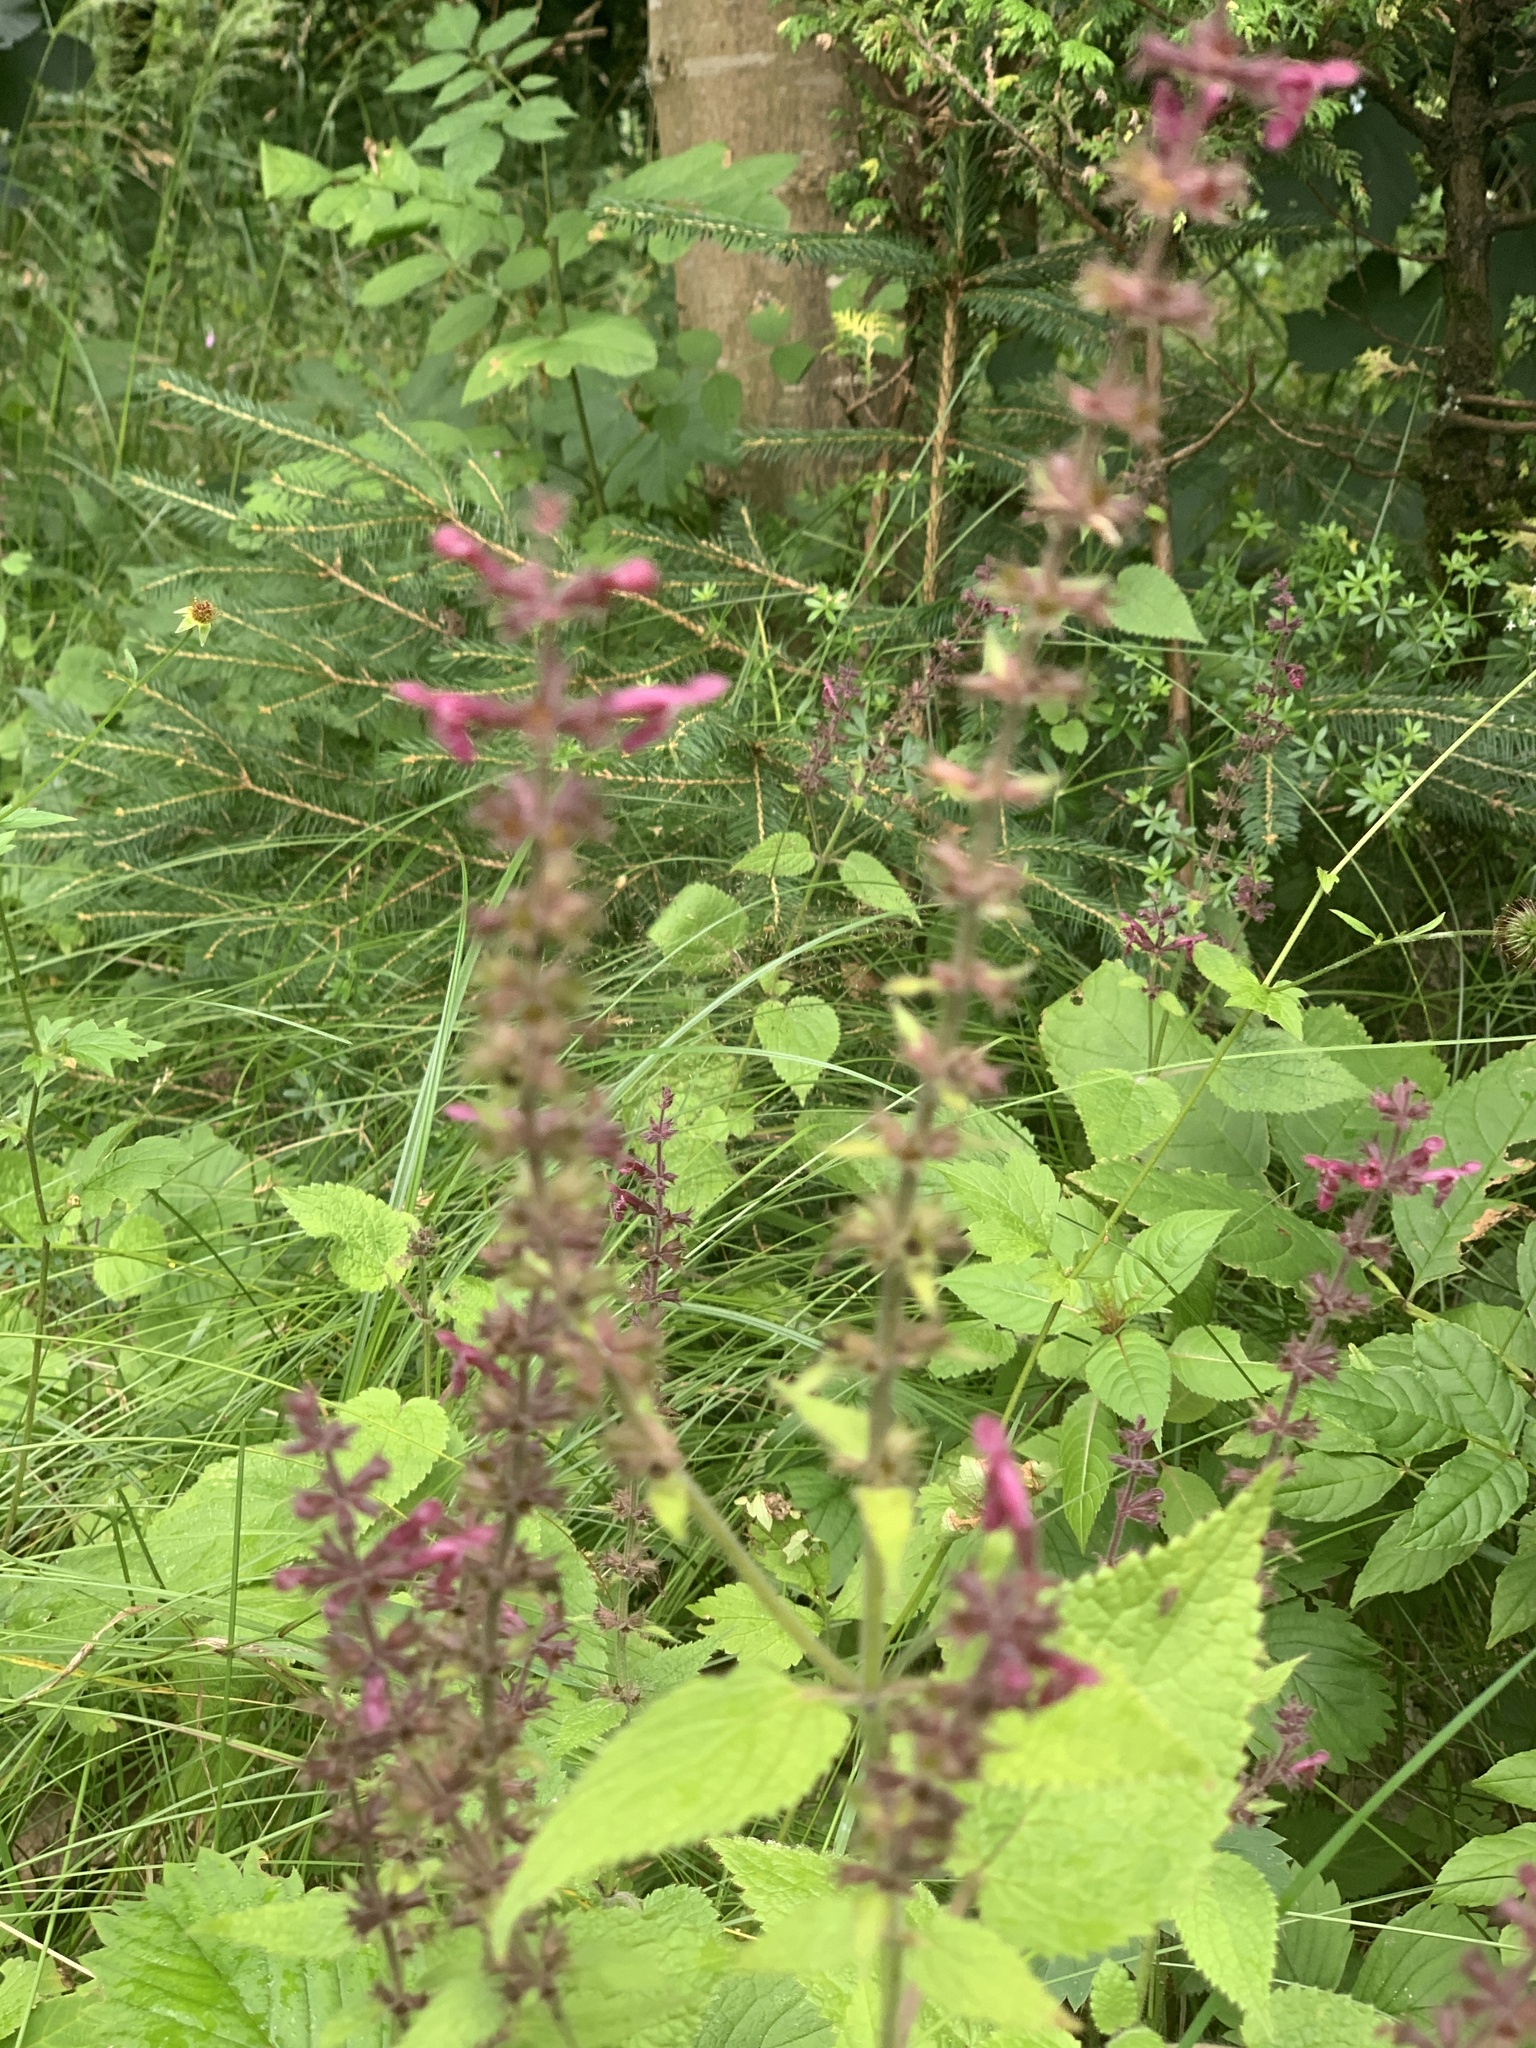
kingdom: Plantae
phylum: Tracheophyta
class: Magnoliopsida
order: Lamiales
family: Lamiaceae
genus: Stachys
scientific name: Stachys sylvatica
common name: Hedge woundwort
